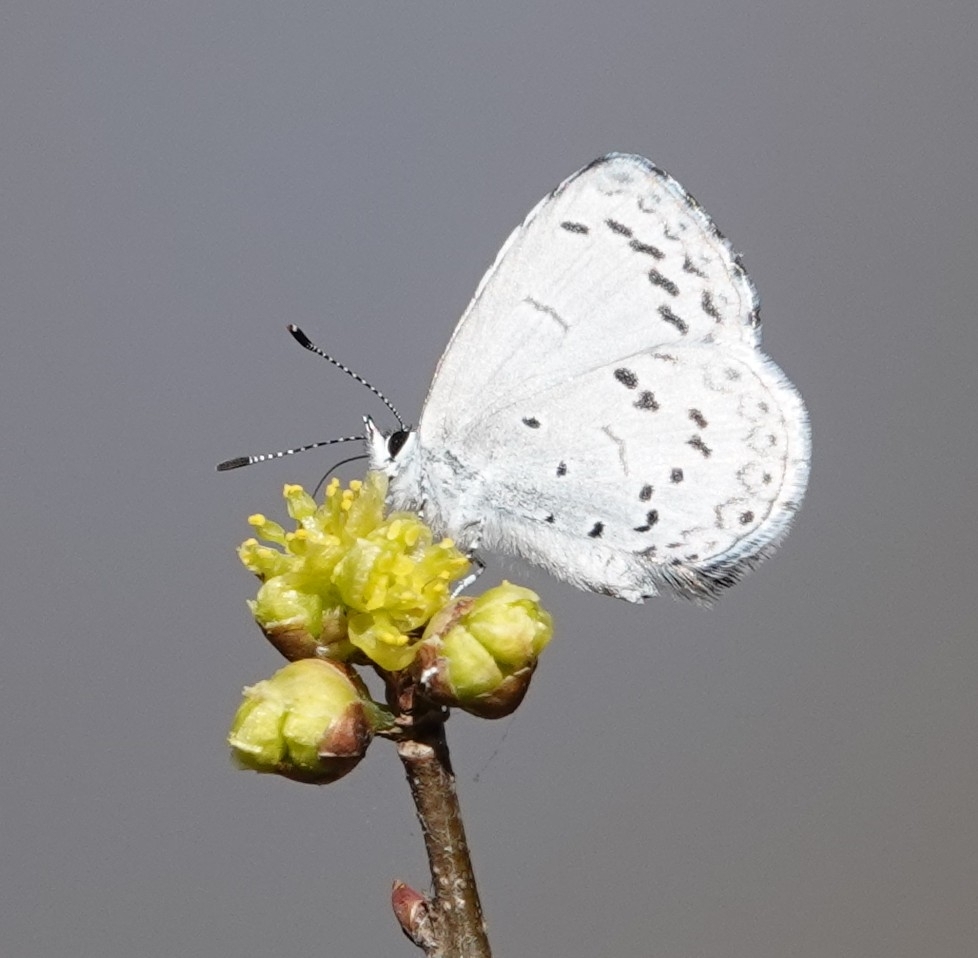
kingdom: Animalia
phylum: Arthropoda
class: Insecta
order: Lepidoptera
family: Lycaenidae
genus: Celastrina
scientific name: Celastrina ladon
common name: Spring azure
